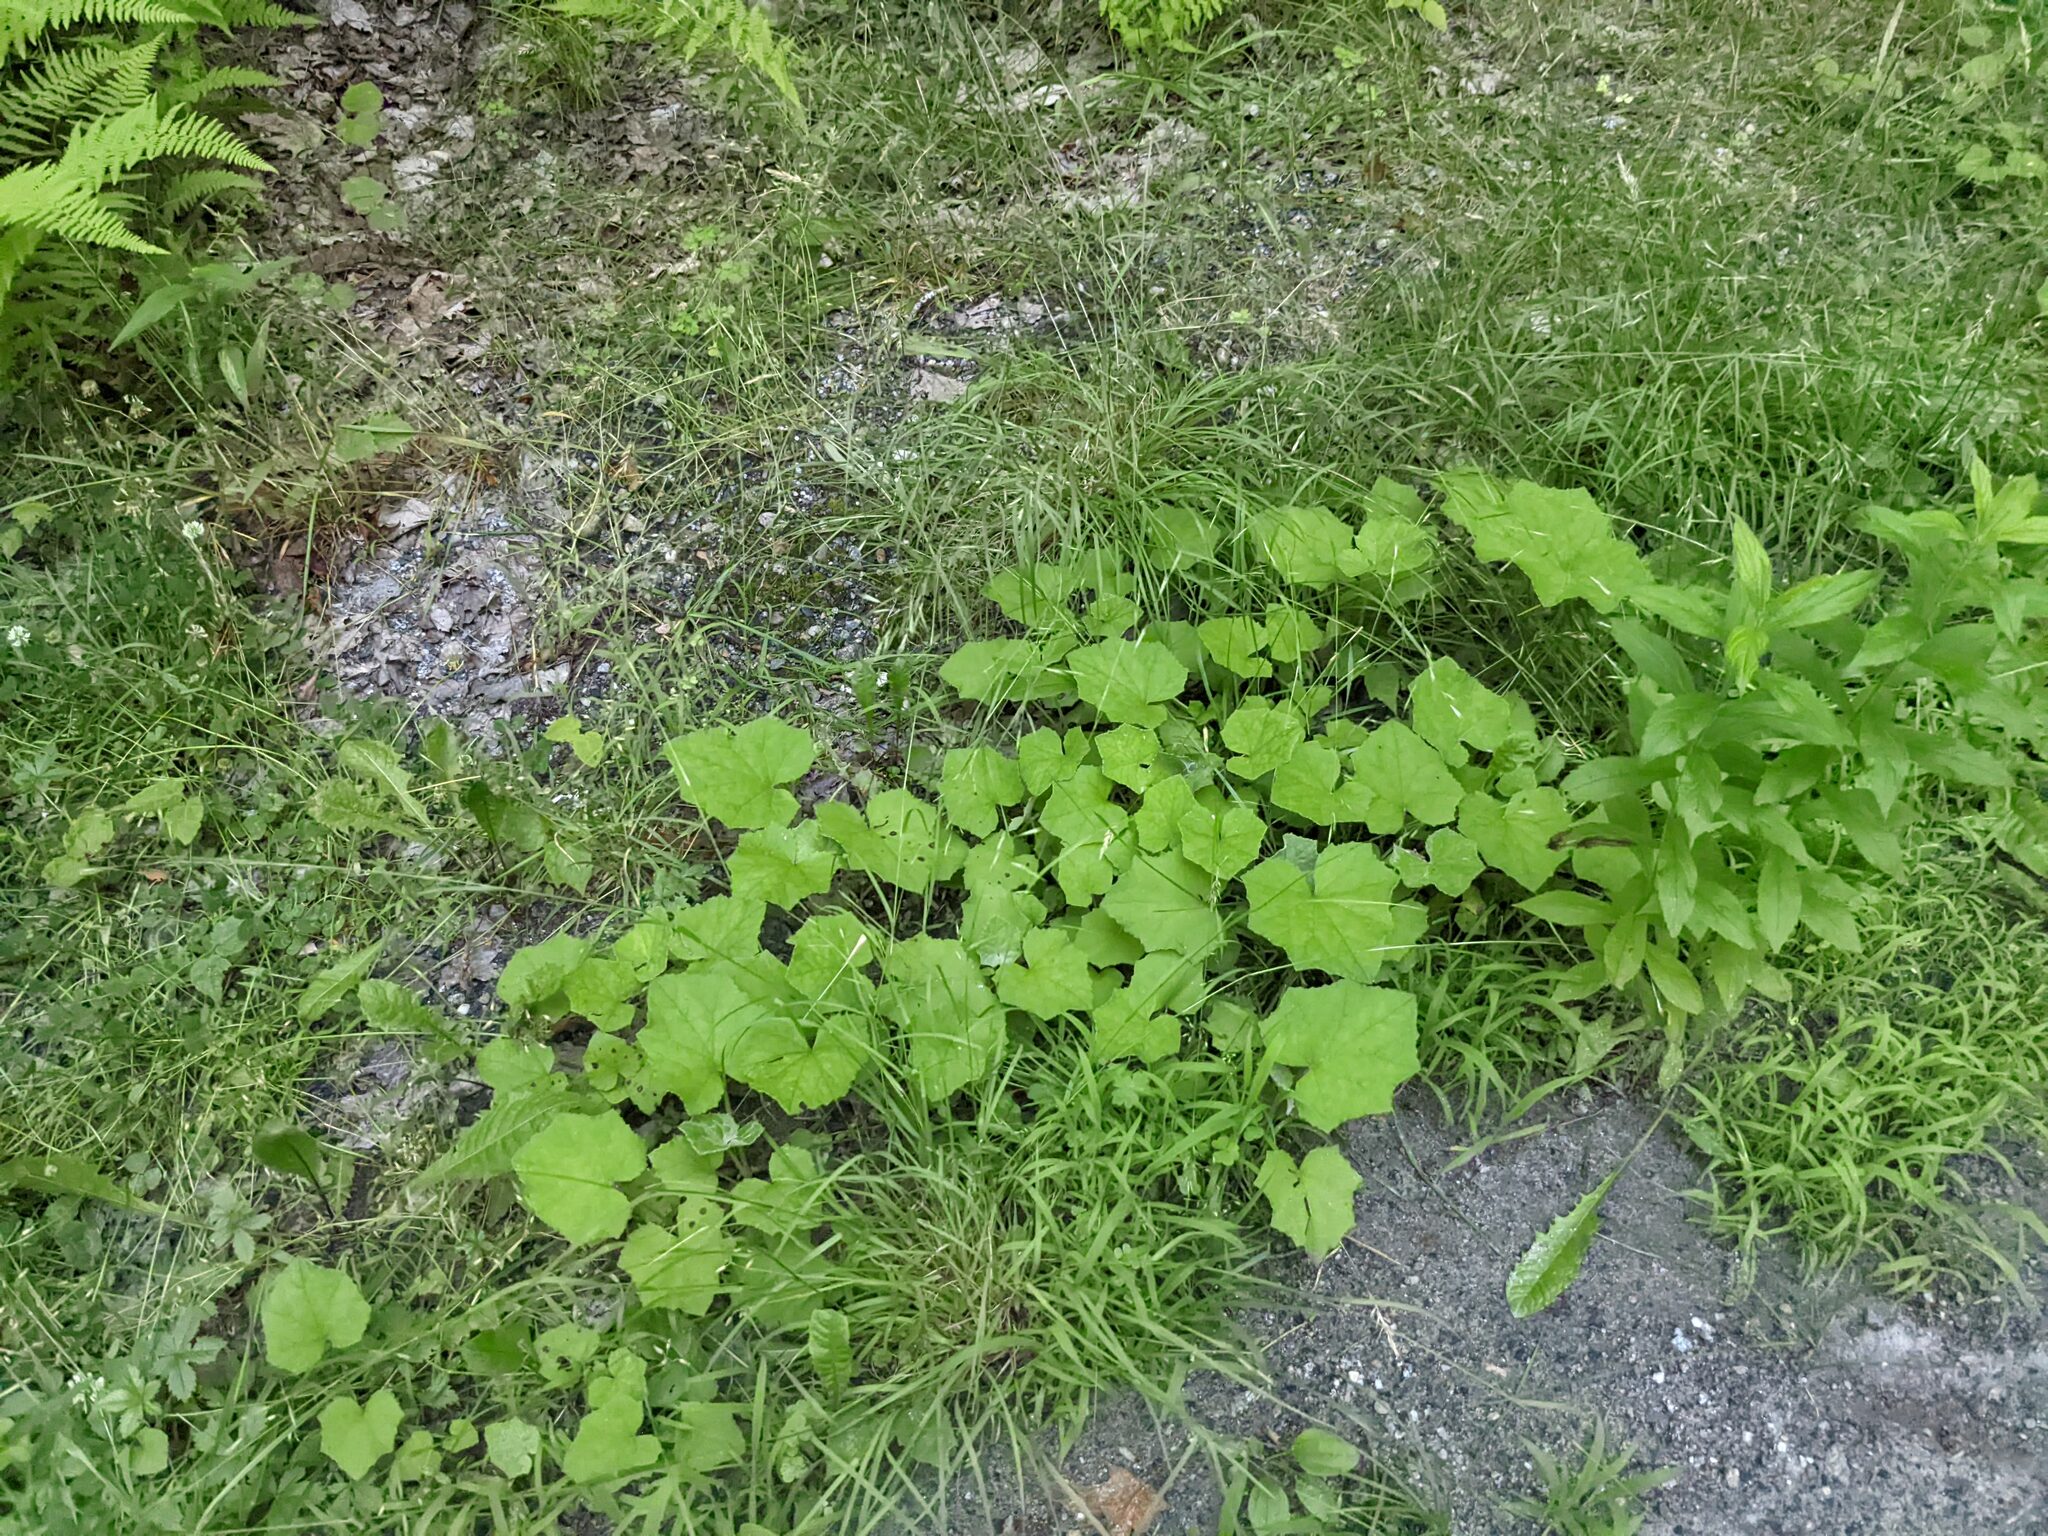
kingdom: Plantae
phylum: Tracheophyta
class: Magnoliopsida
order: Asterales
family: Asteraceae
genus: Tussilago
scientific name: Tussilago farfara
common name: Coltsfoot
